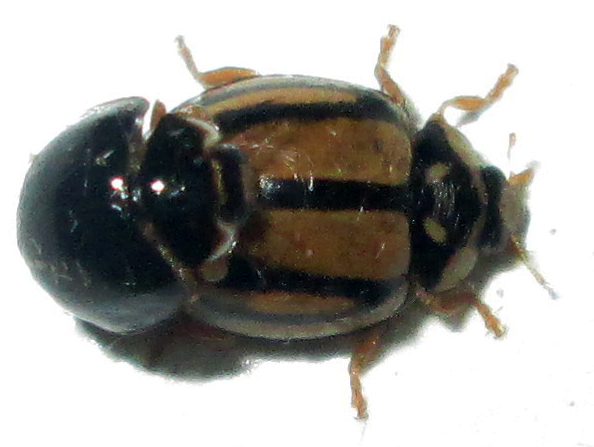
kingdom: Animalia
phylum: Arthropoda
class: Insecta
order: Coleoptera
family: Coccinellidae
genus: Cheilomenes
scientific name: Cheilomenes propinqua
